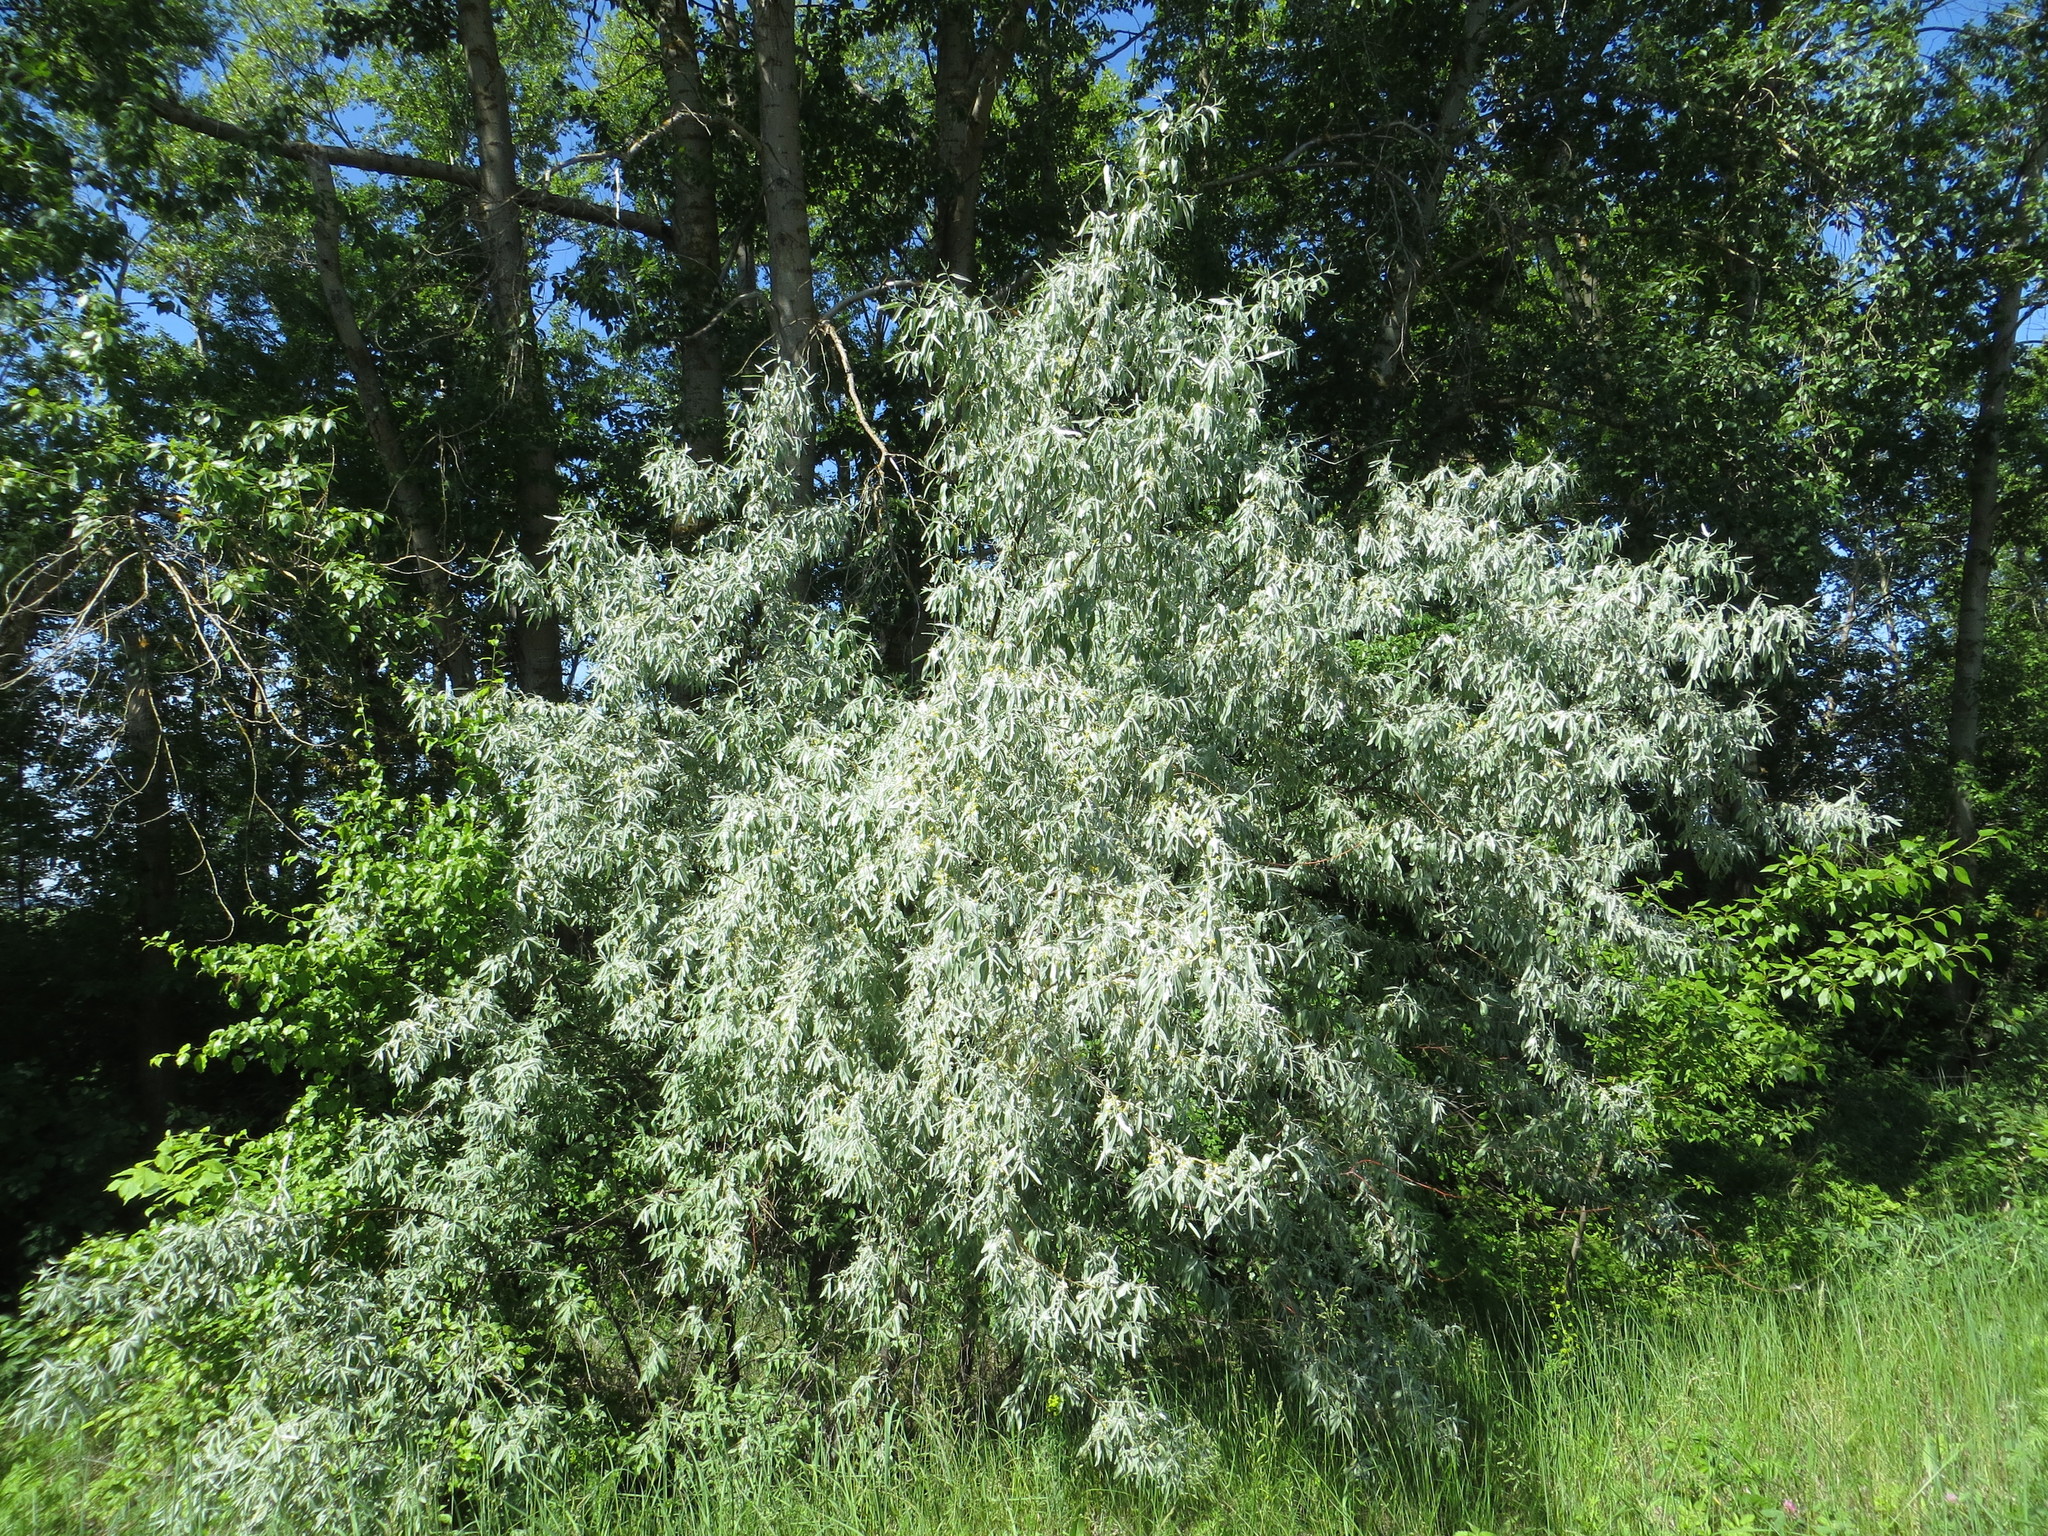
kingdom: Plantae
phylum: Tracheophyta
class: Magnoliopsida
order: Rosales
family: Elaeagnaceae
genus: Elaeagnus
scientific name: Elaeagnus angustifolia
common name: Russian olive
